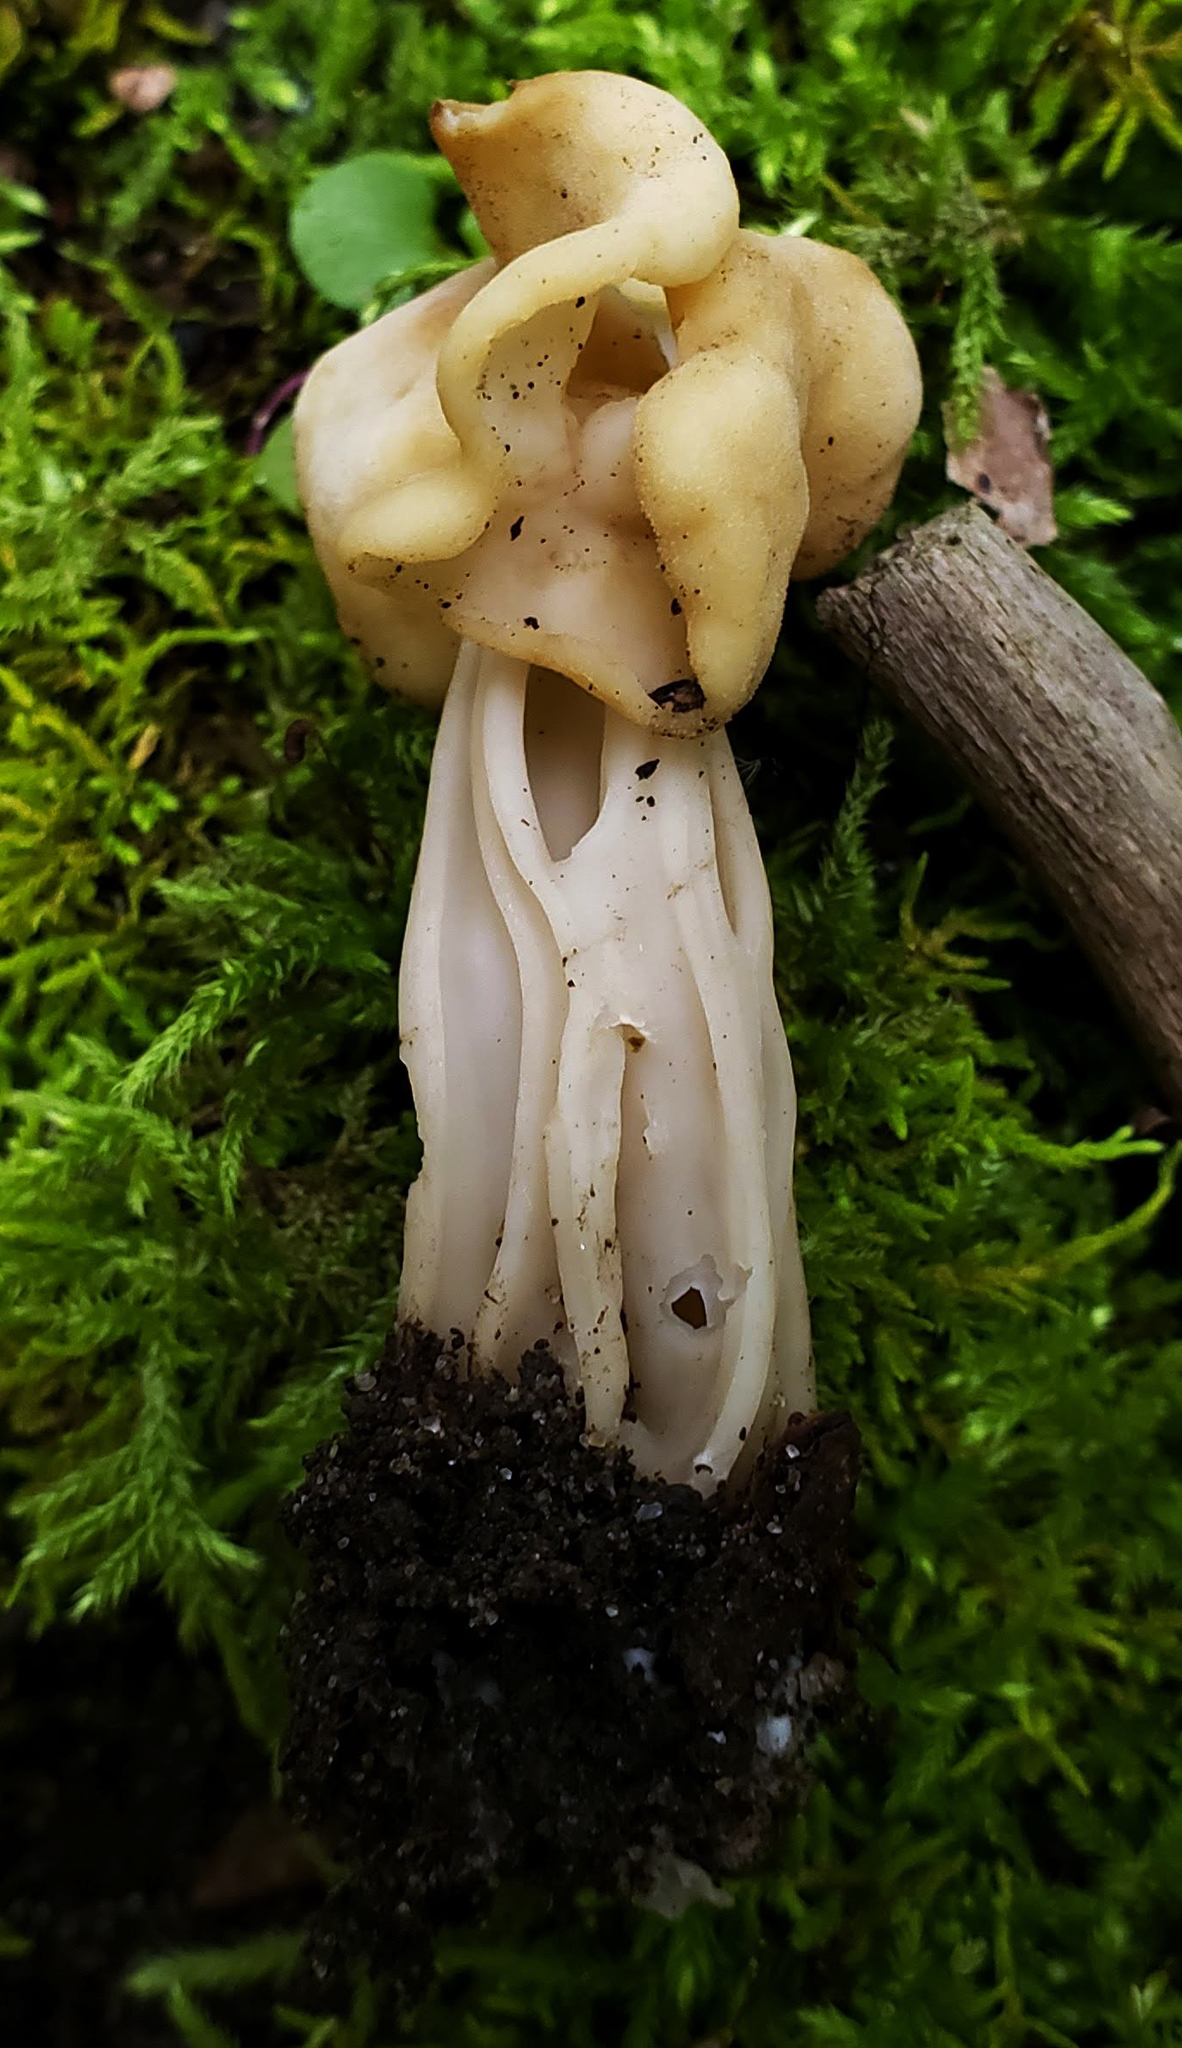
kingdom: Fungi
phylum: Ascomycota
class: Pezizomycetes
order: Pezizales
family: Helvellaceae
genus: Helvella
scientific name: Helvella crispa
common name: White saddle
